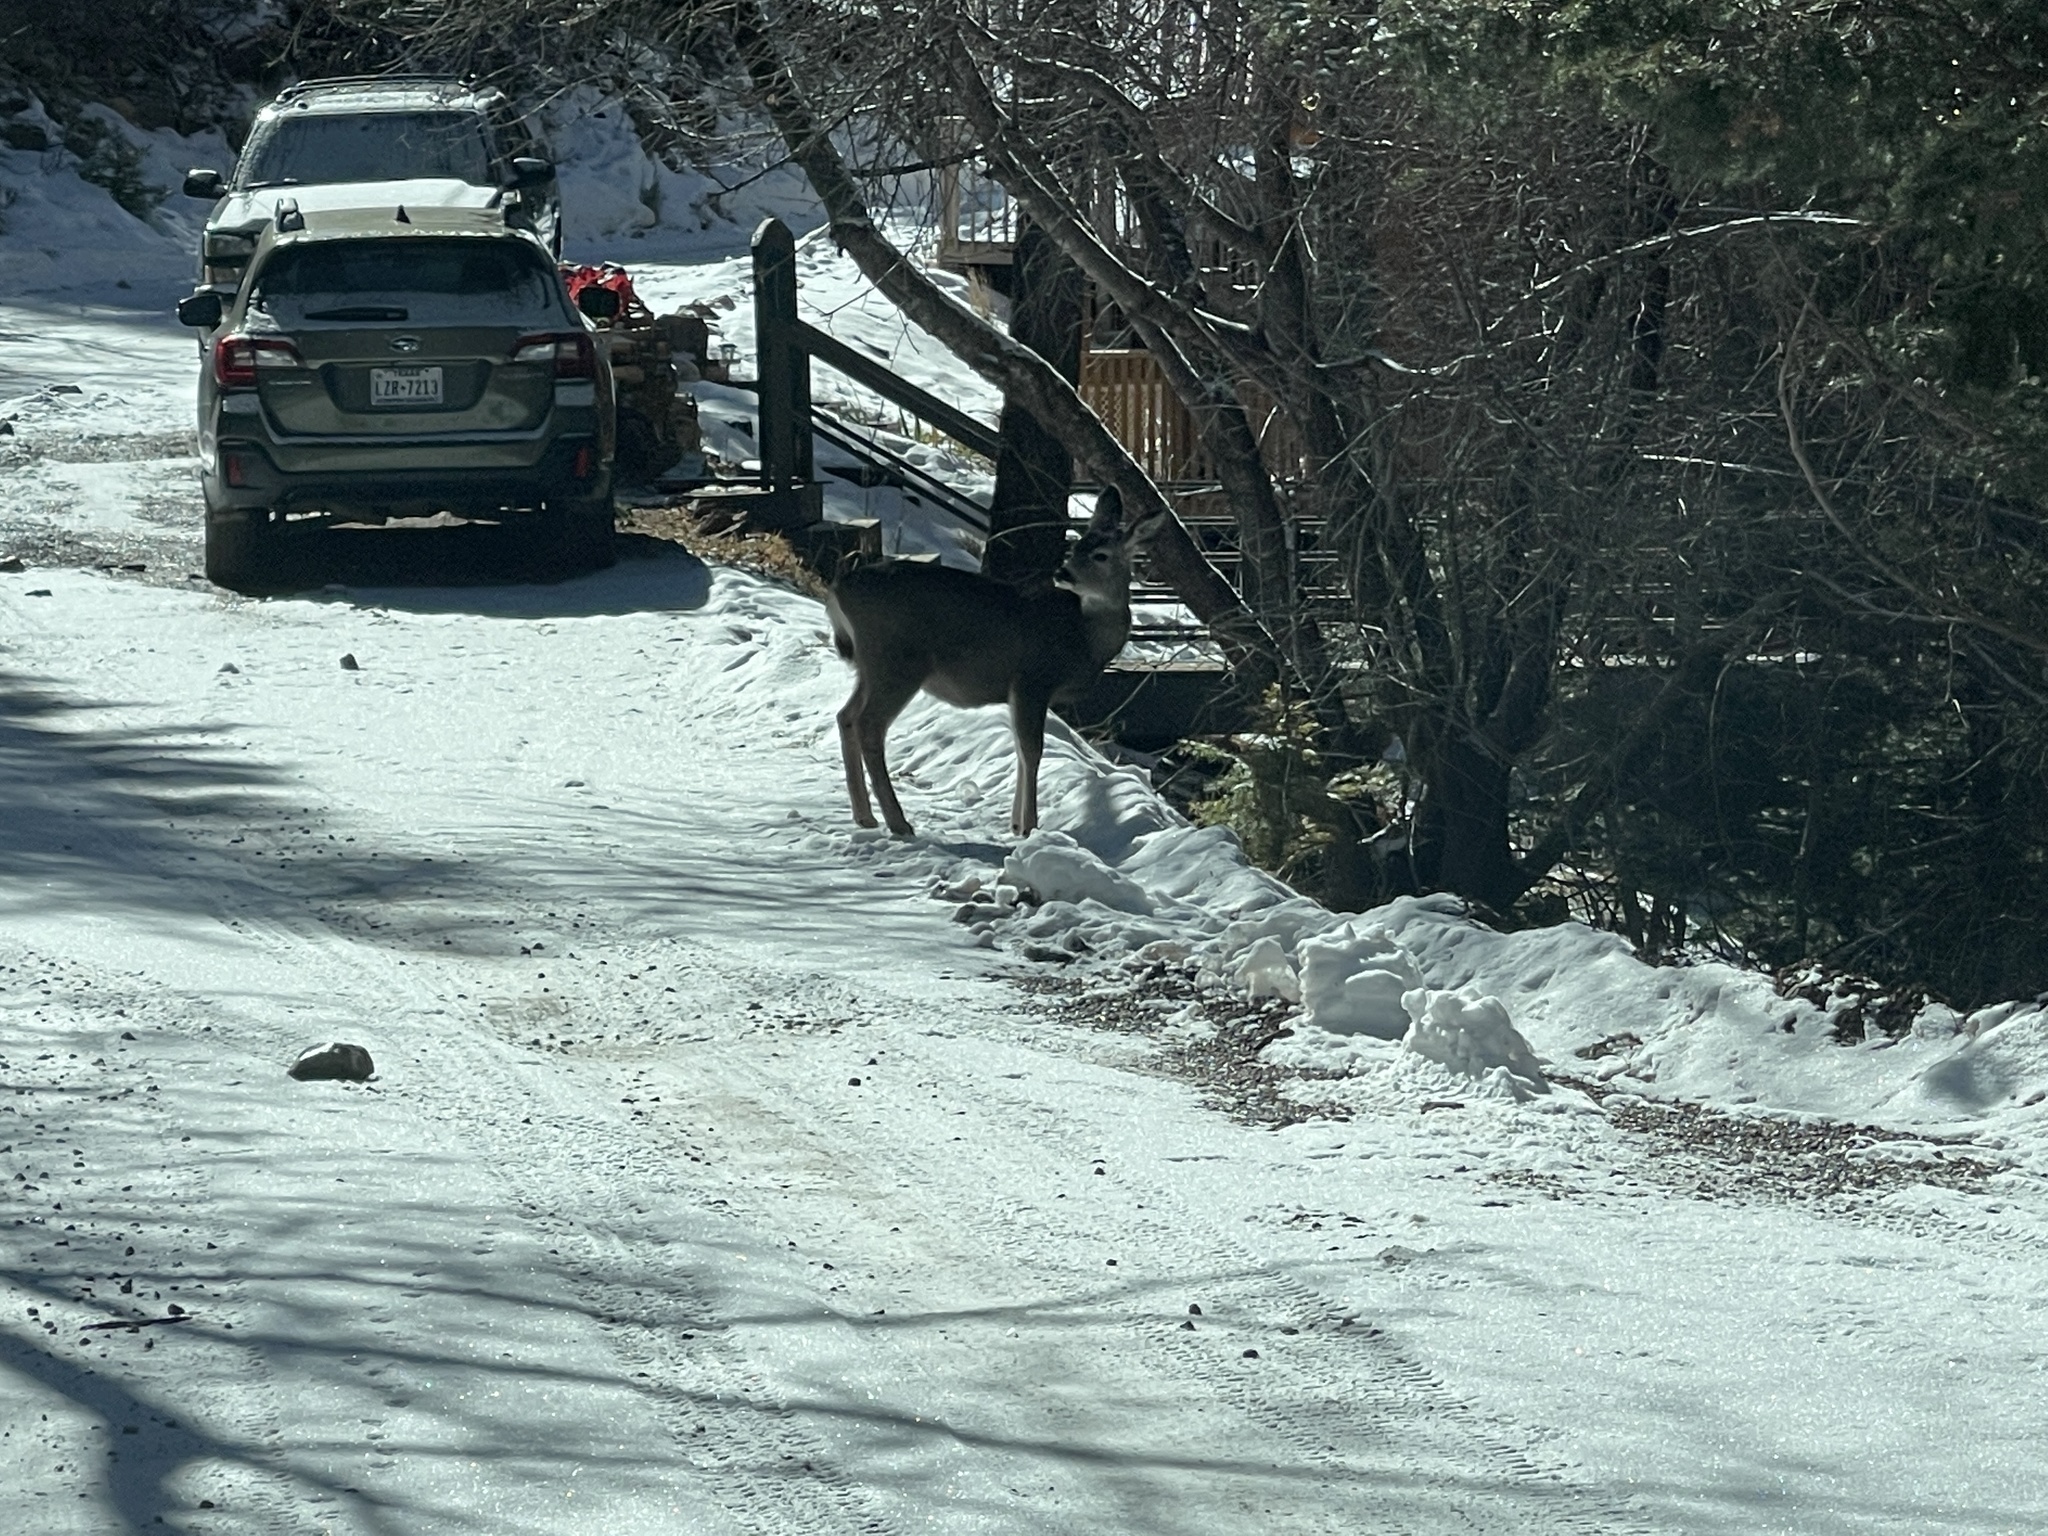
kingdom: Animalia
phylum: Chordata
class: Mammalia
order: Artiodactyla
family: Cervidae
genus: Odocoileus
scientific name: Odocoileus hemionus
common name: Mule deer
